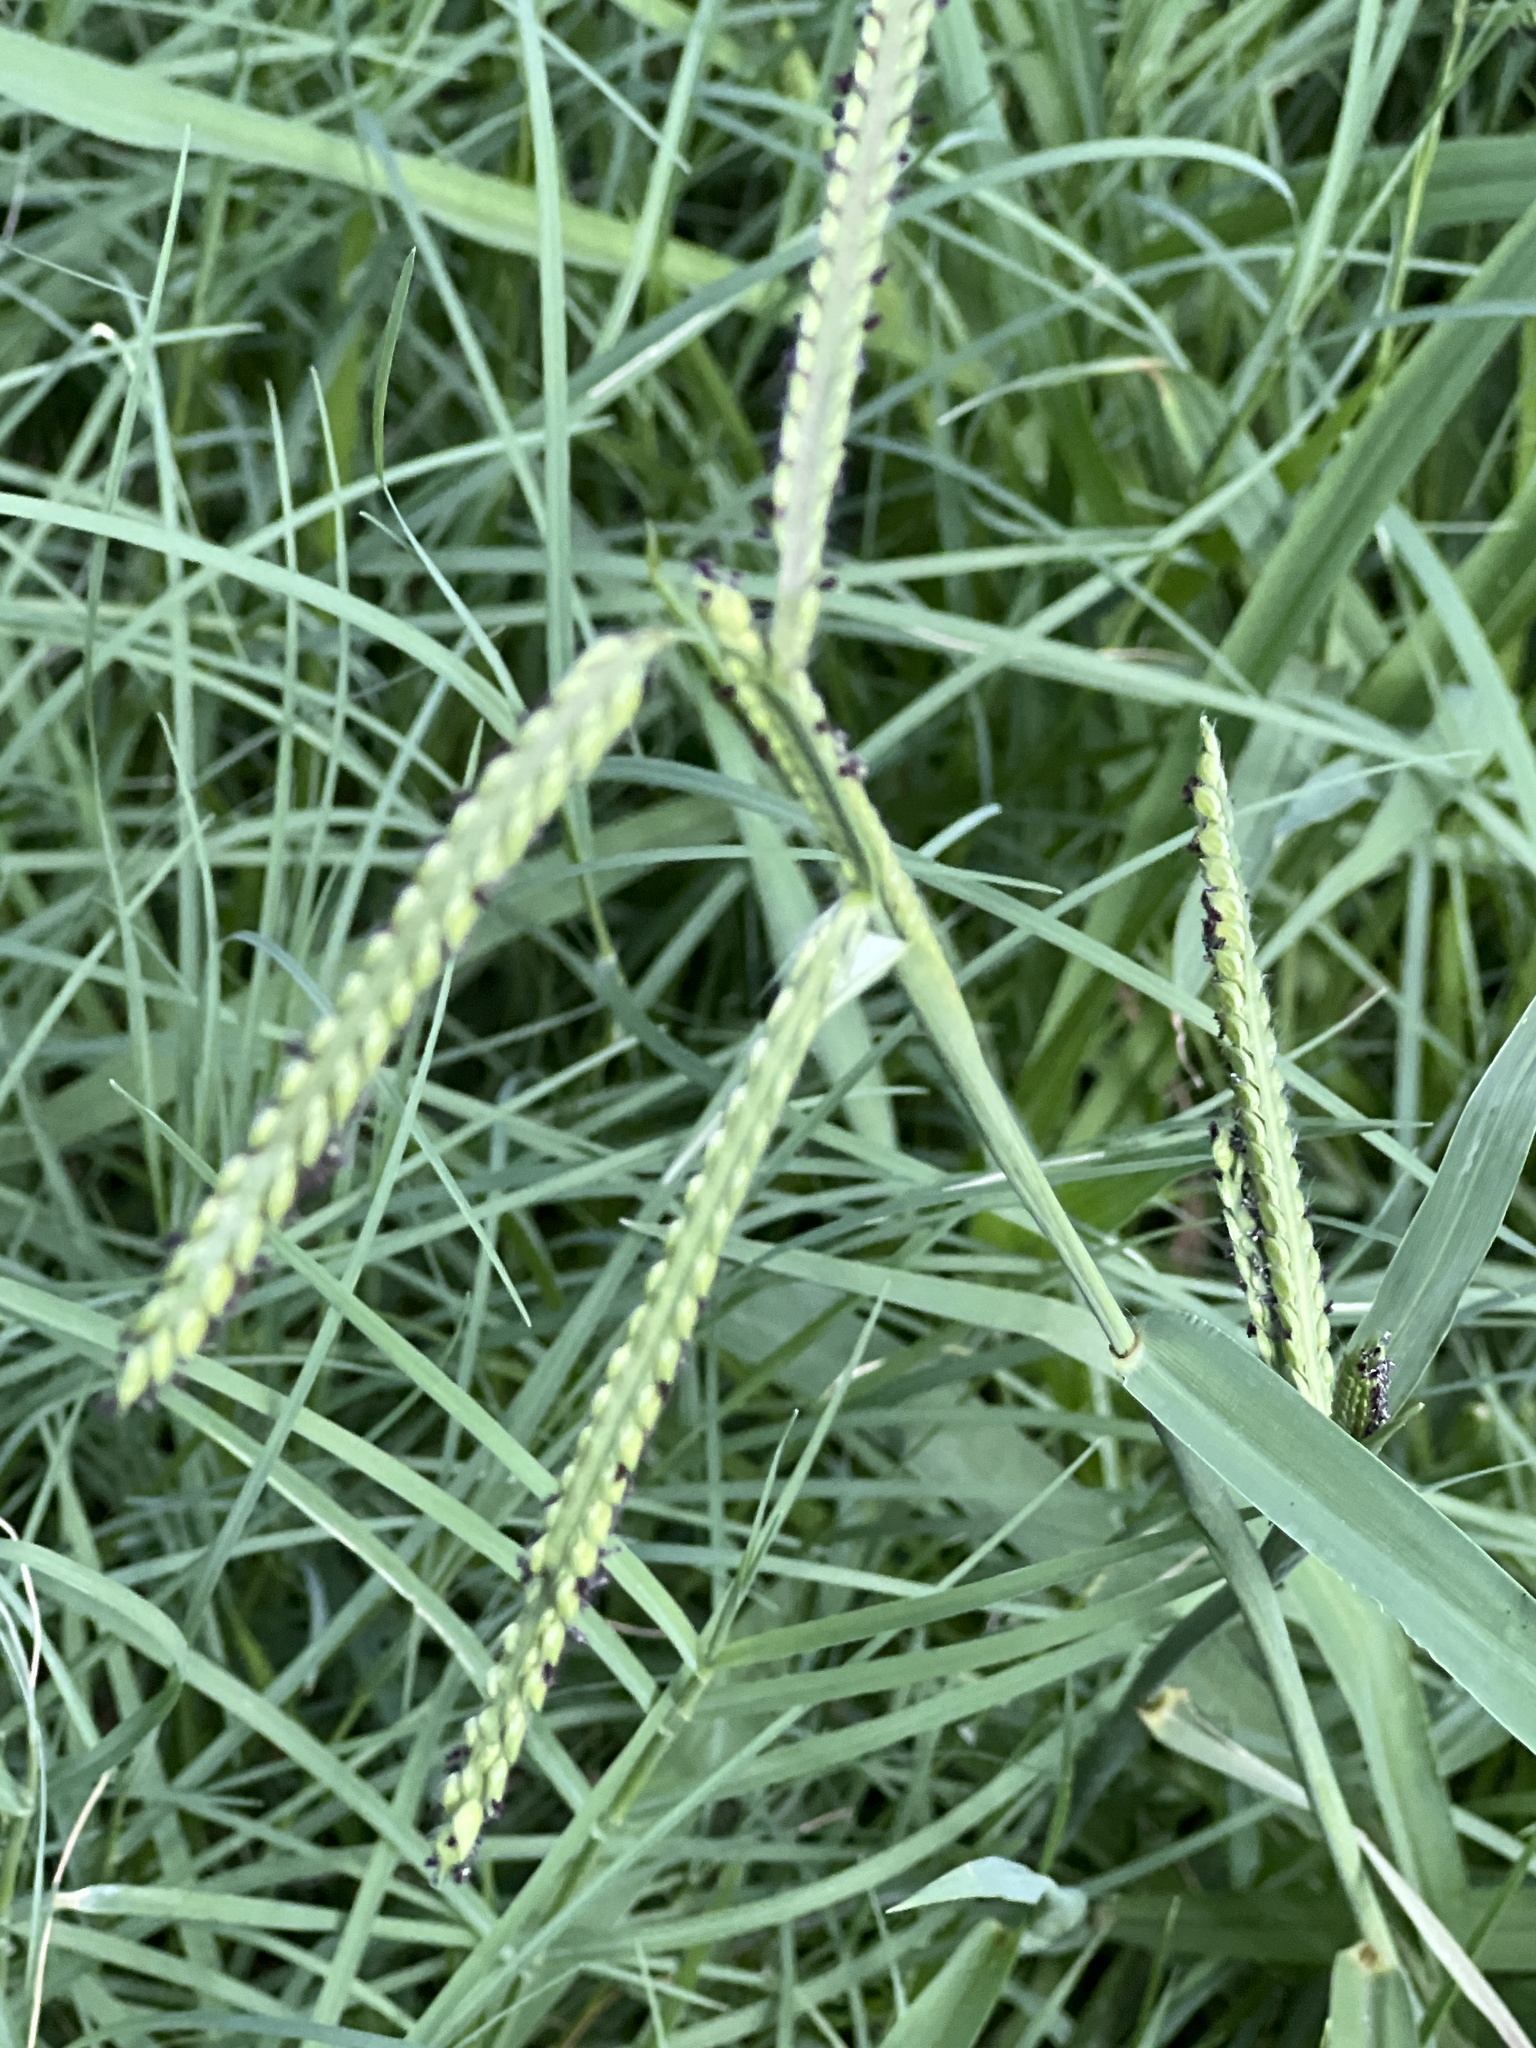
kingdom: Plantae
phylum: Tracheophyta
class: Liliopsida
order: Poales
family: Poaceae
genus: Paspalum
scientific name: Paspalum dilatatum
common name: Dallisgrass
